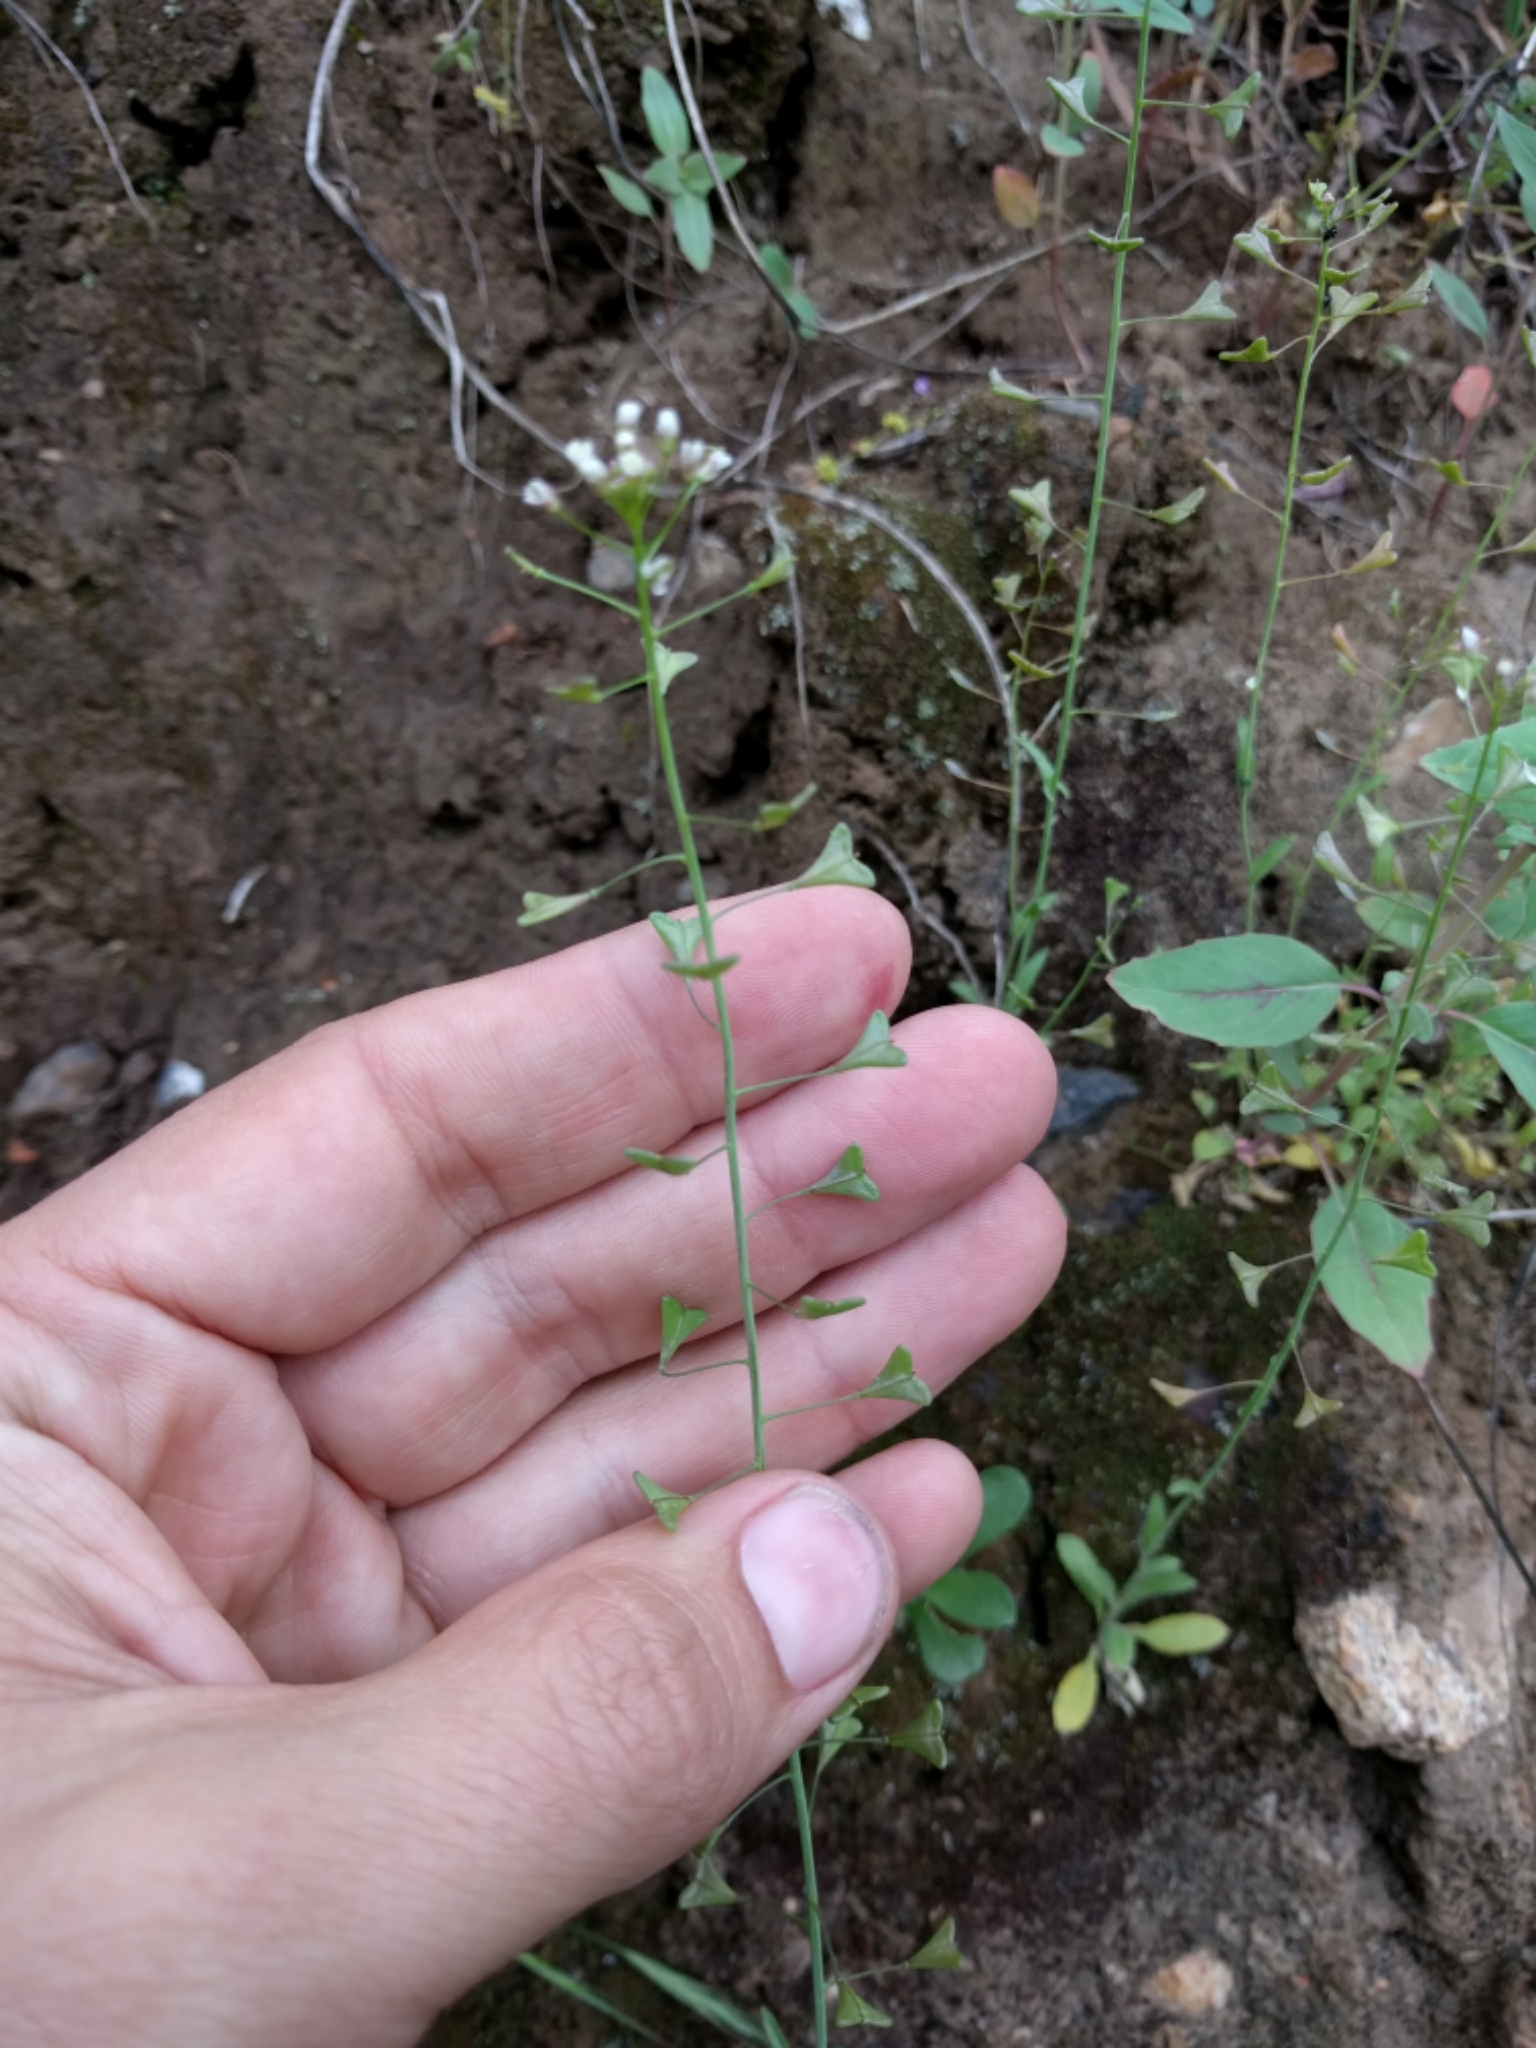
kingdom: Plantae
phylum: Tracheophyta
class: Magnoliopsida
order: Brassicales
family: Brassicaceae
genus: Capsella
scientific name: Capsella bursa-pastoris
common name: Shepherd's purse
